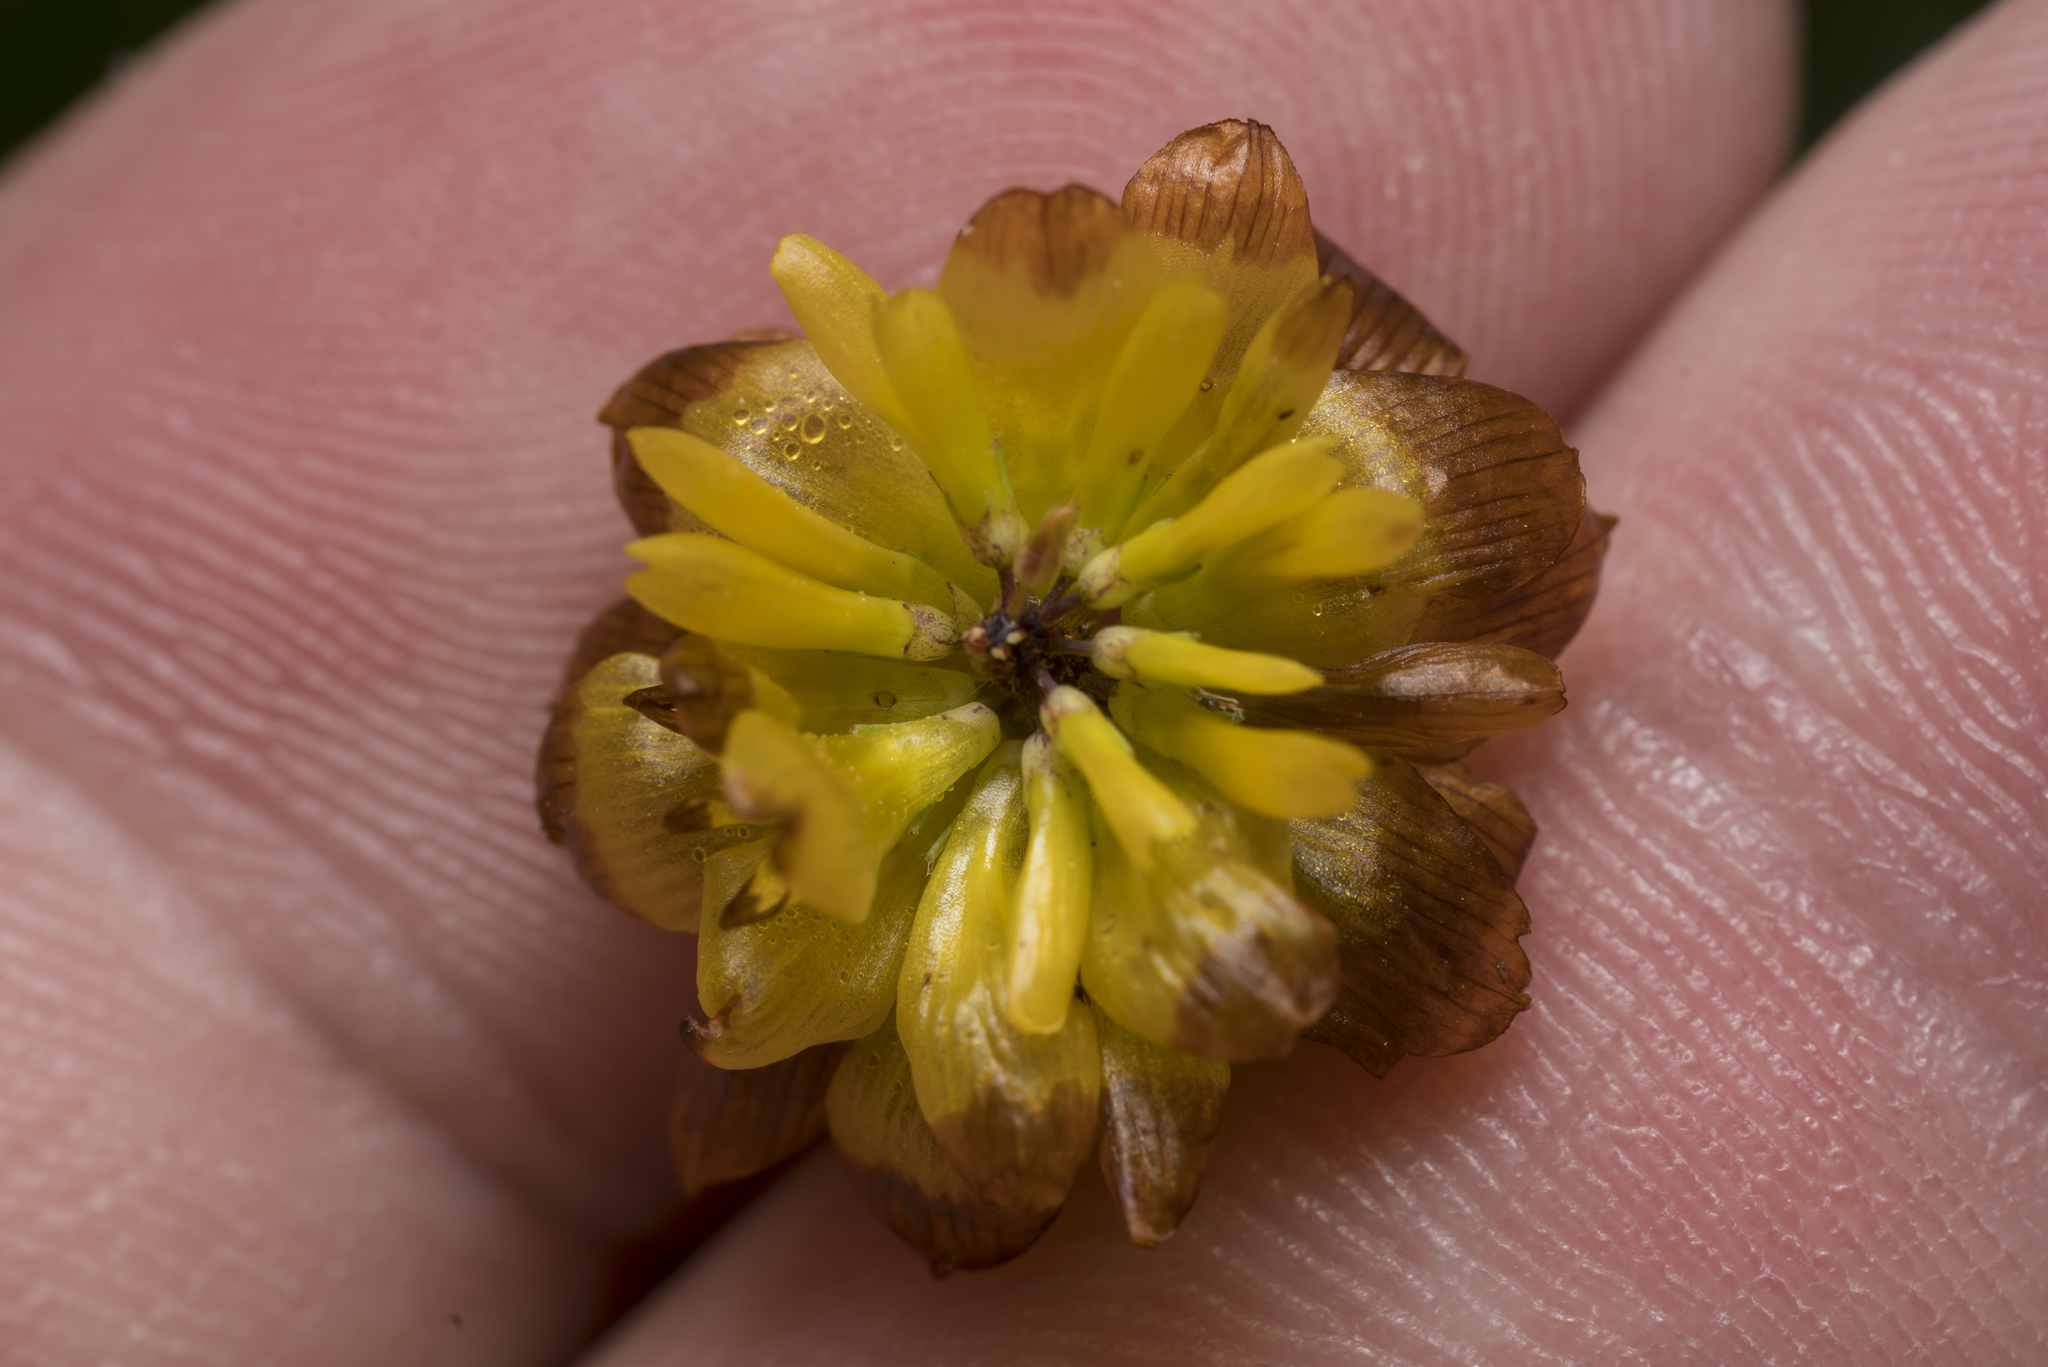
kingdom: Plantae
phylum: Tracheophyta
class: Magnoliopsida
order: Fabales
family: Fabaceae
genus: Trifolium
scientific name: Trifolium badium
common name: Brown clover
